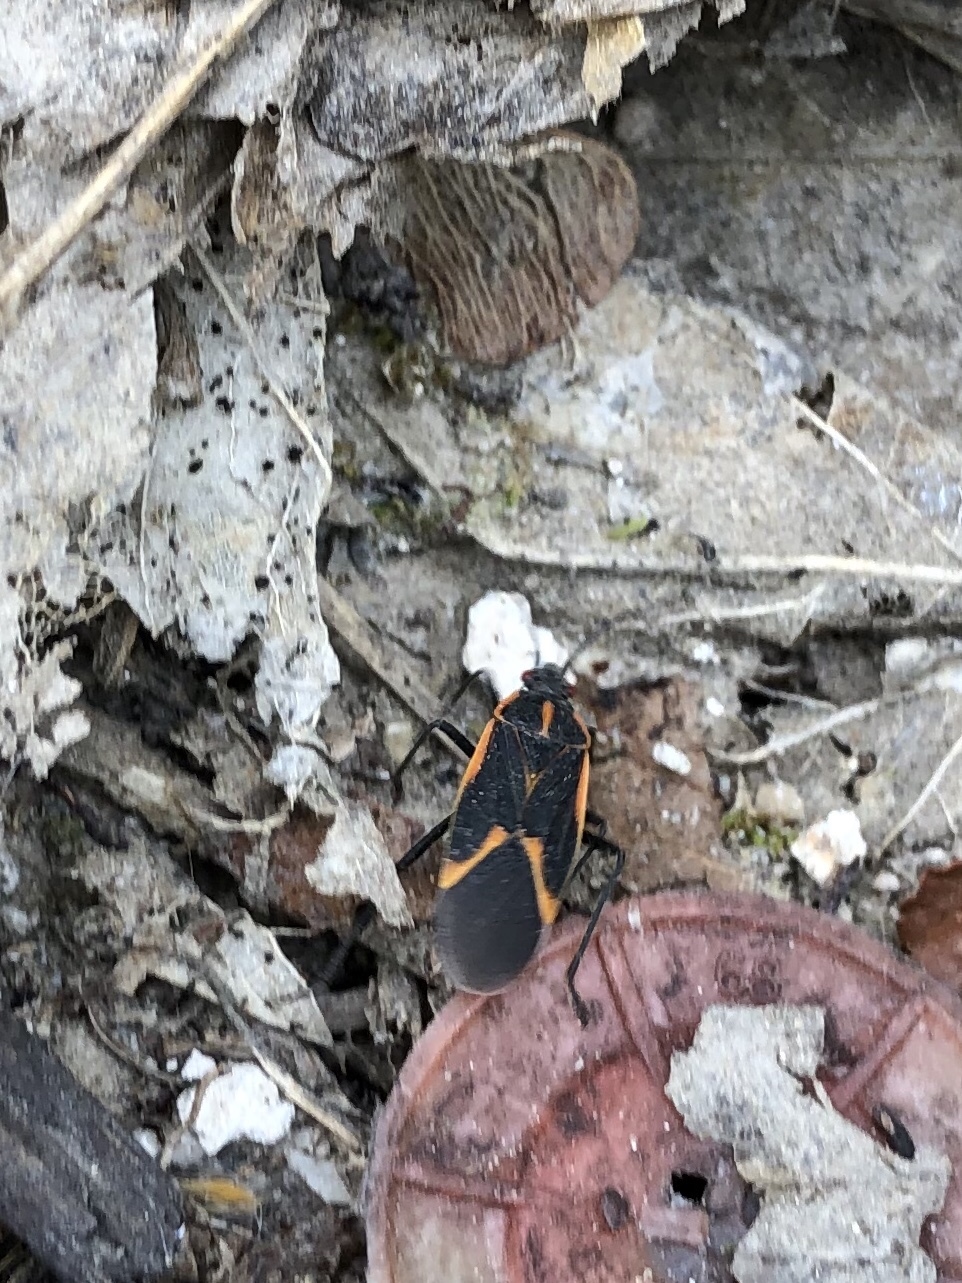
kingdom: Animalia
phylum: Arthropoda
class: Insecta
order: Hemiptera
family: Rhopalidae
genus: Boisea
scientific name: Boisea trivittata
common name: Boxelder bug
